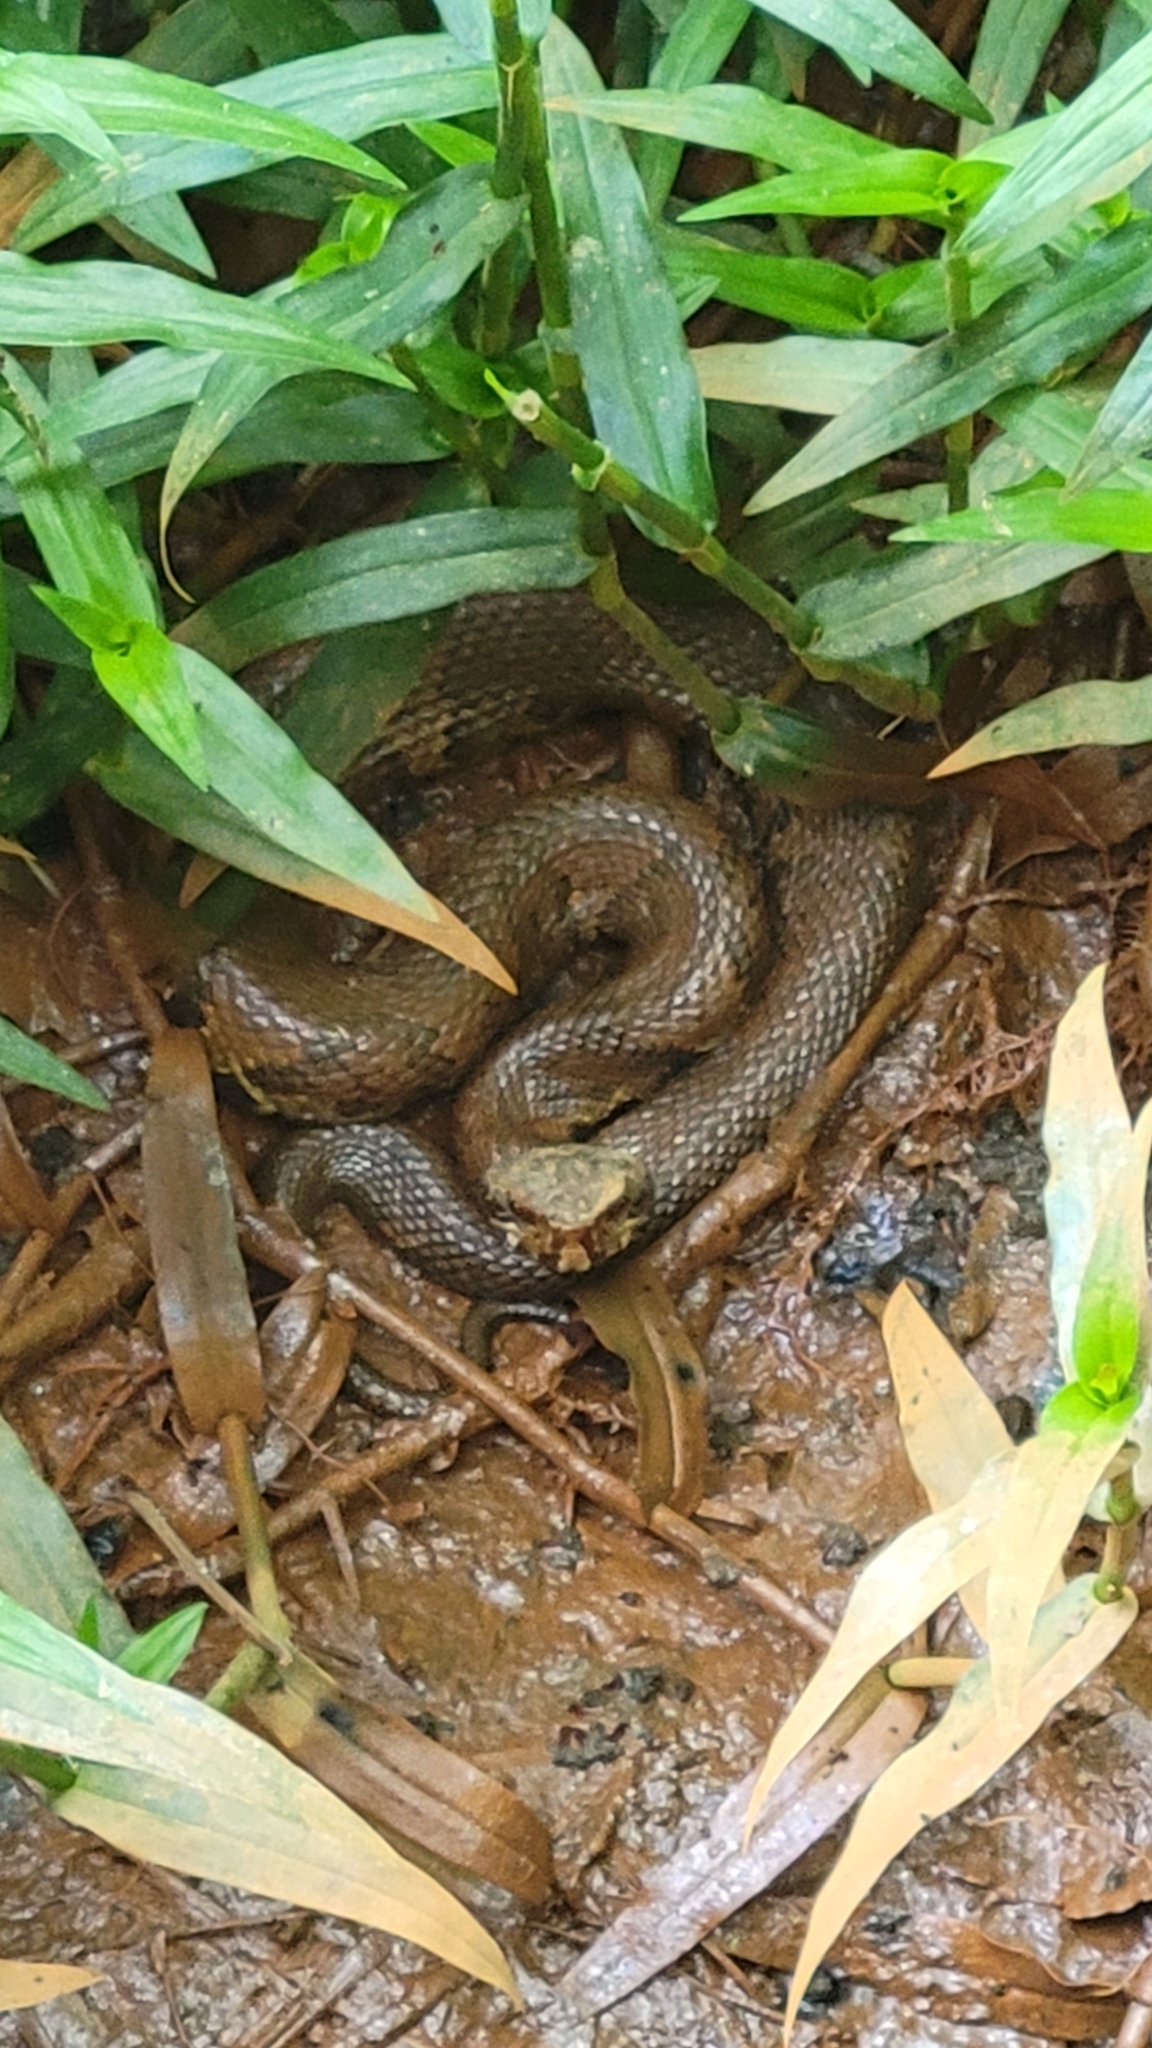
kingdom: Animalia
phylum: Chordata
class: Squamata
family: Viperidae
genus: Agkistrodon
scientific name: Agkistrodon piscivorus
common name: Cottonmouth
